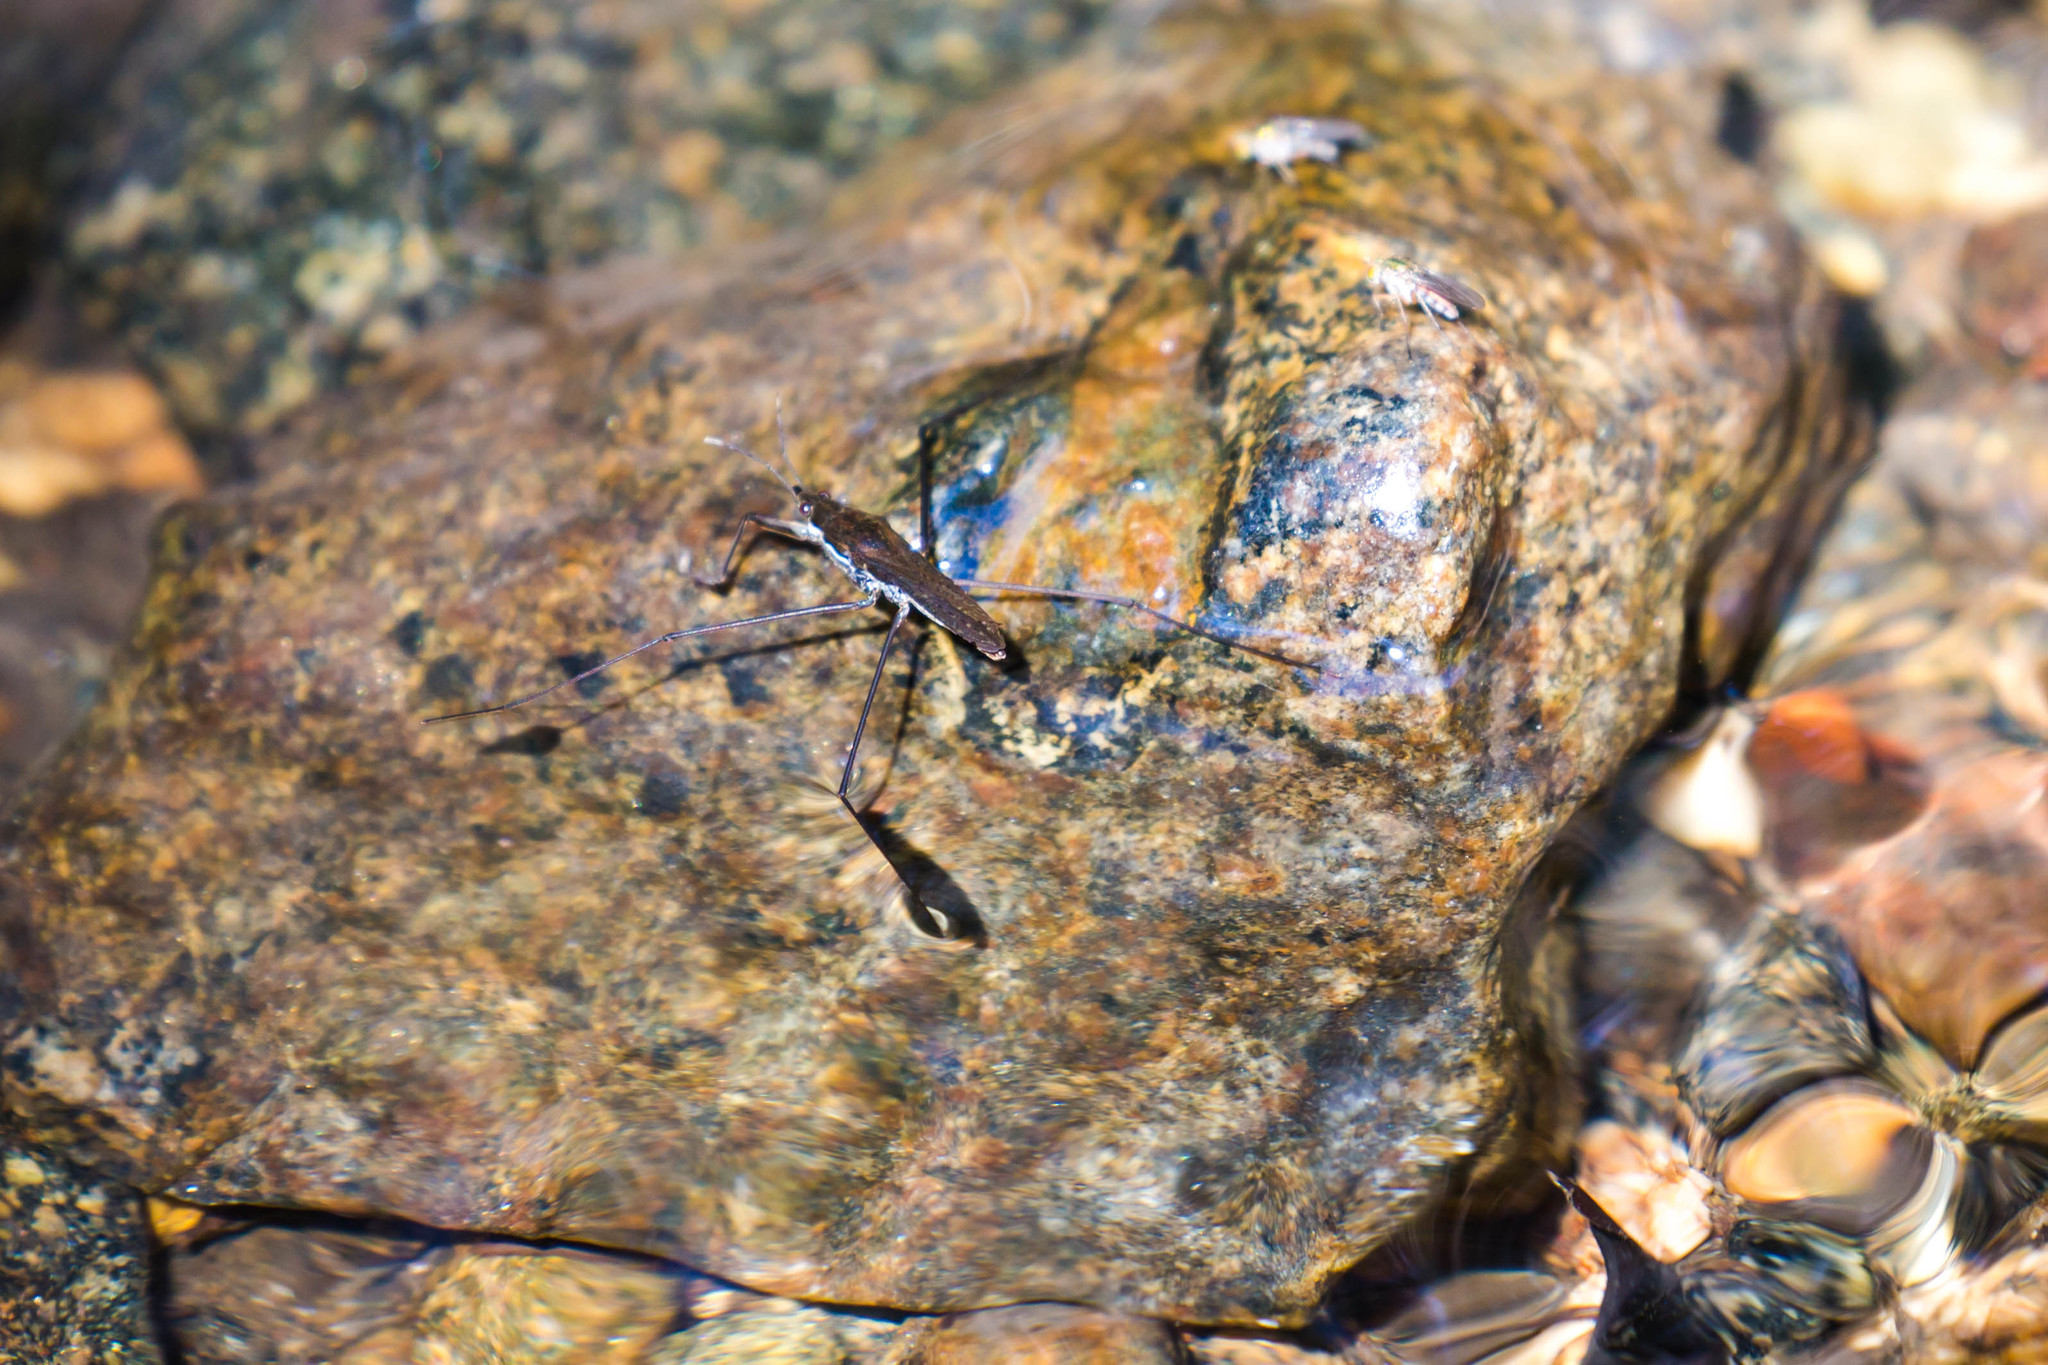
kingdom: Animalia
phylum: Arthropoda
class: Insecta
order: Hemiptera
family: Gerridae
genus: Aquarius
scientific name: Aquarius remigis
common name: Common water strider
